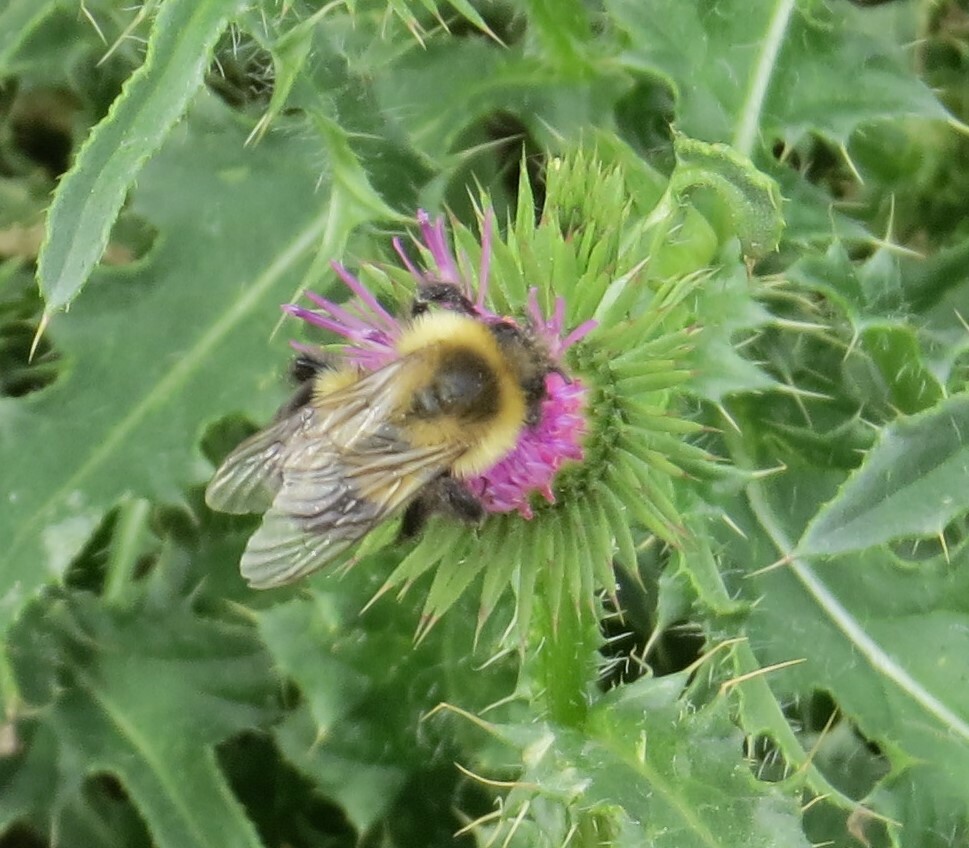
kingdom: Animalia
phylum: Arthropoda
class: Insecta
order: Hymenoptera
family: Apidae
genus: Bombus
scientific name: Bombus impatiens
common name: Common eastern bumble bee
